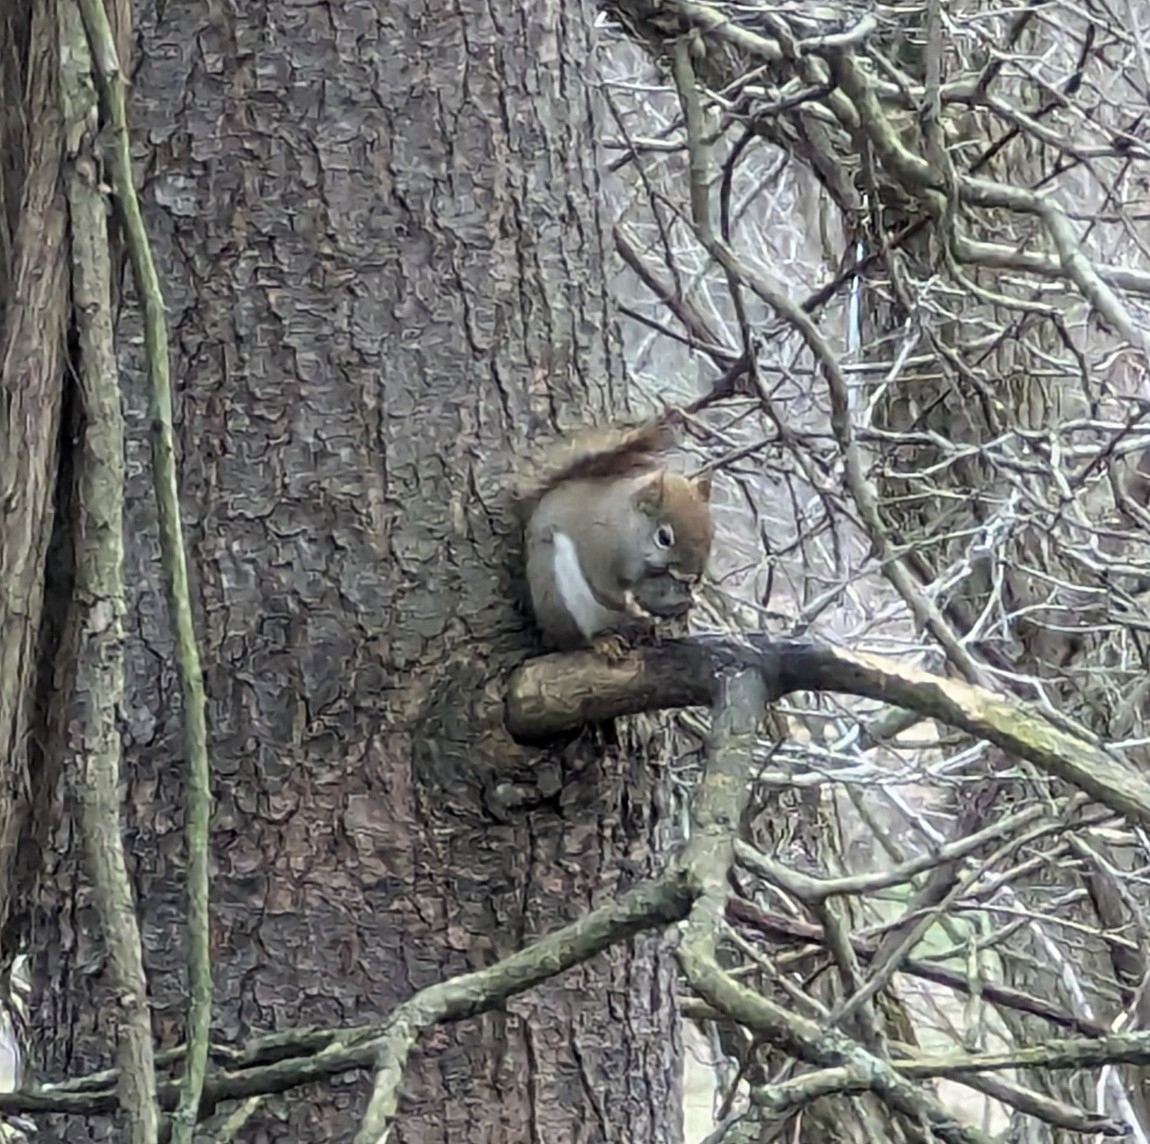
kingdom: Animalia
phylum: Chordata
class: Mammalia
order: Rodentia
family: Sciuridae
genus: Tamiasciurus
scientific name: Tamiasciurus hudsonicus
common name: Red squirrel
